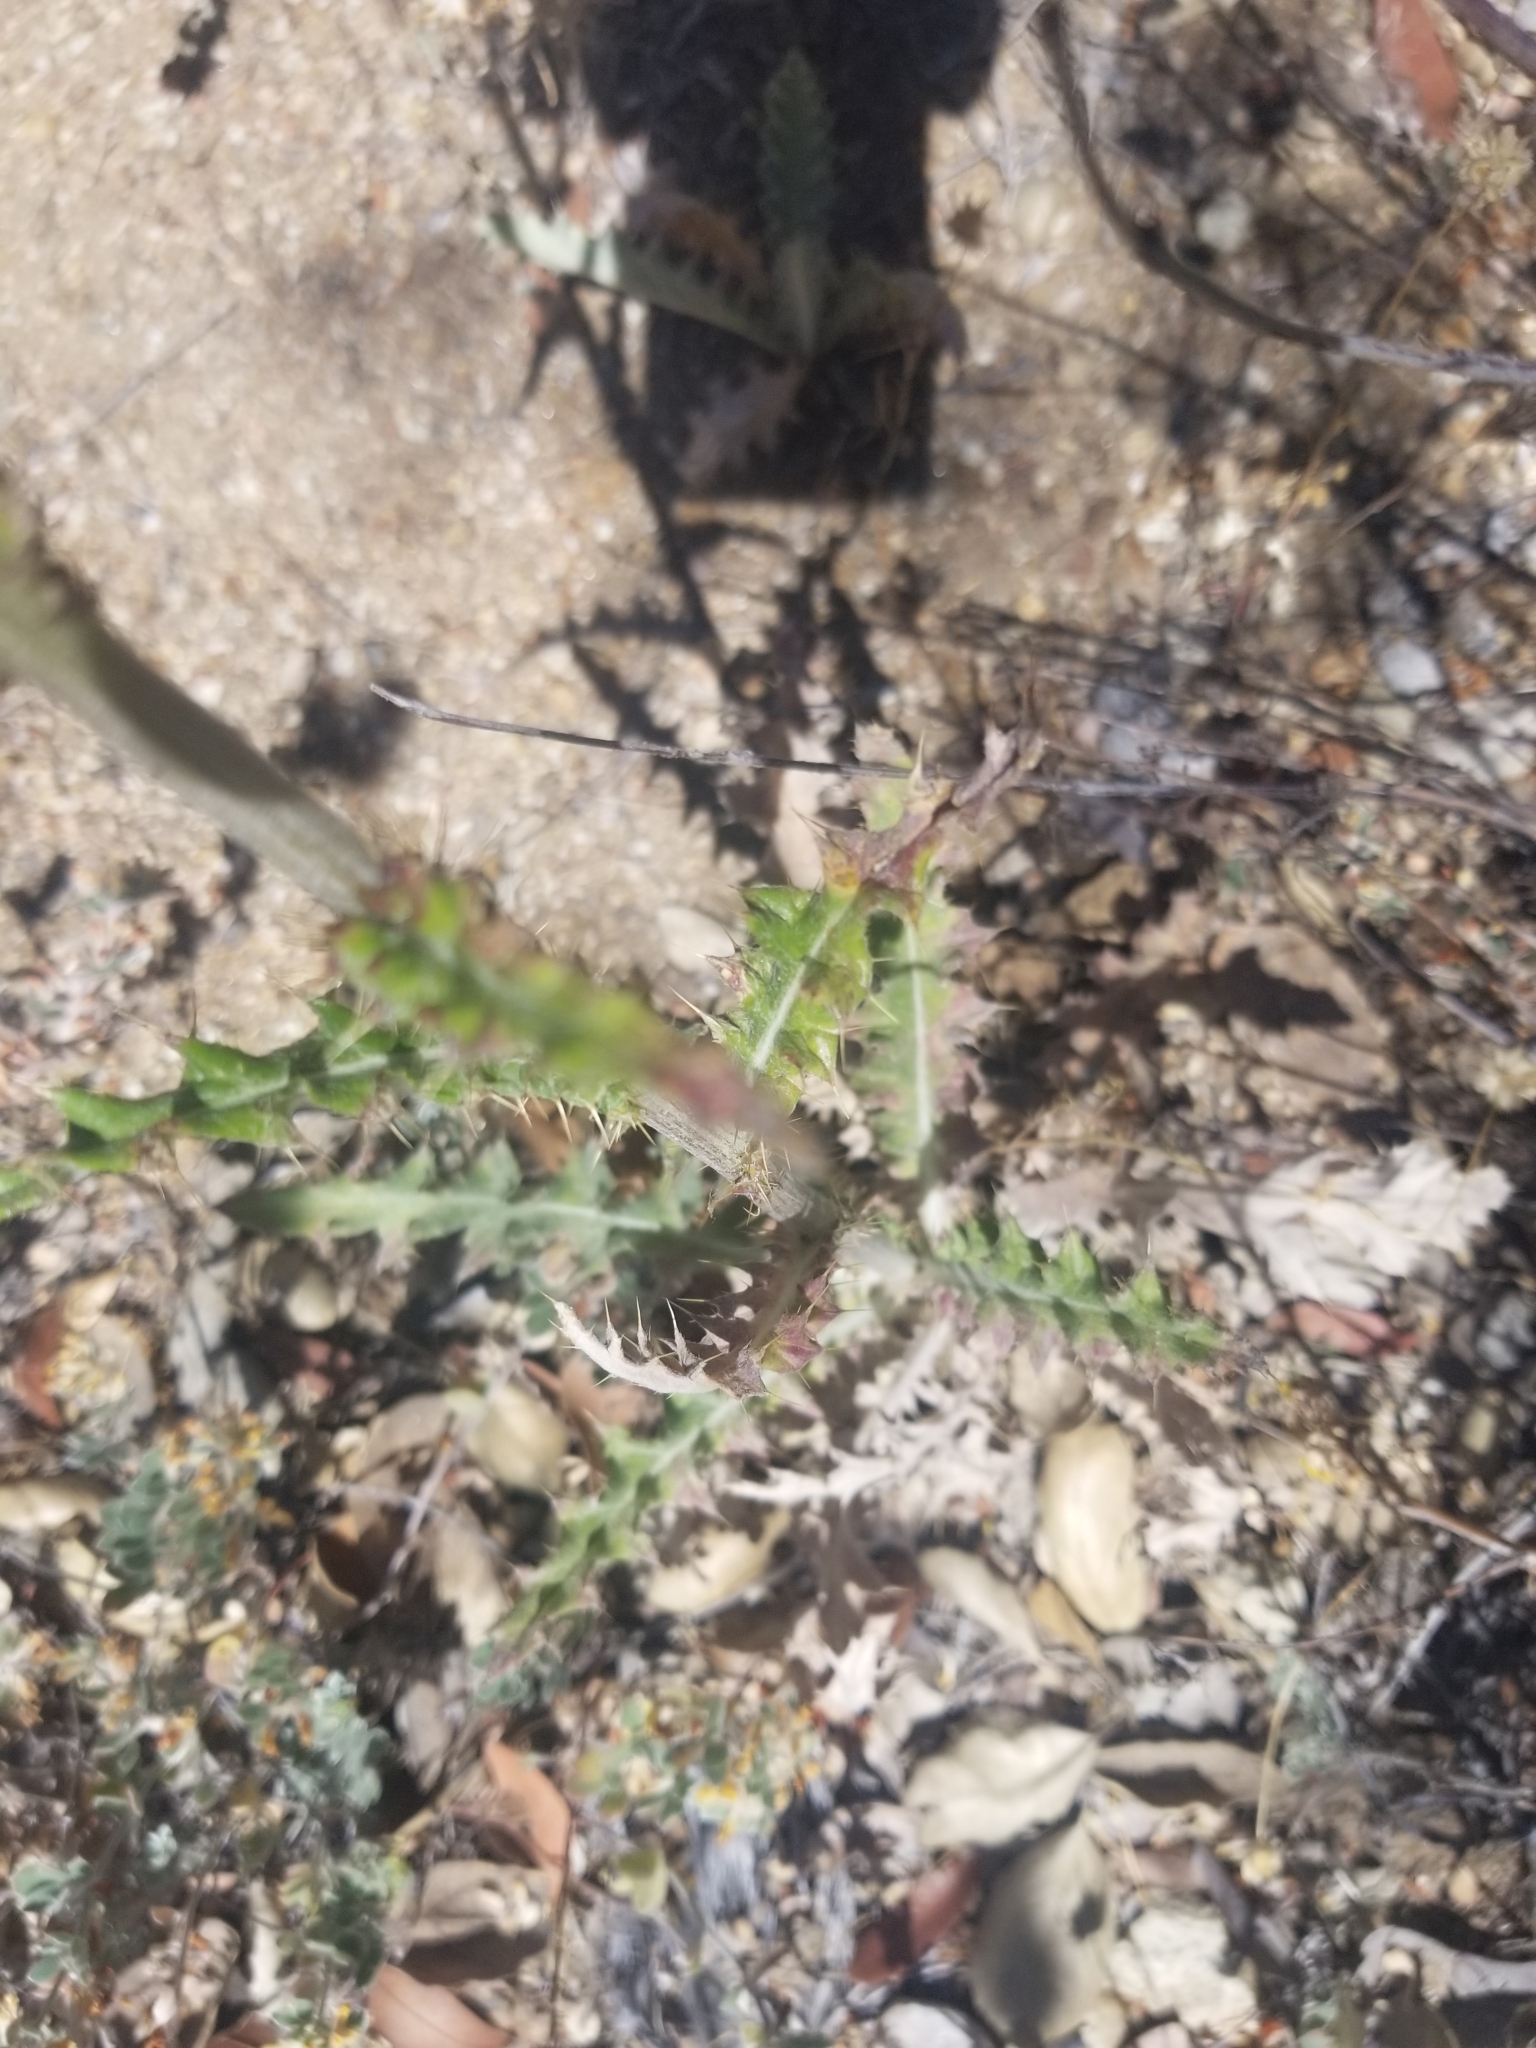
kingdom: Plantae
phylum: Tracheophyta
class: Magnoliopsida
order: Asterales
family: Asteraceae
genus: Cirsium
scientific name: Cirsium occidentale
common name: Western thistle
